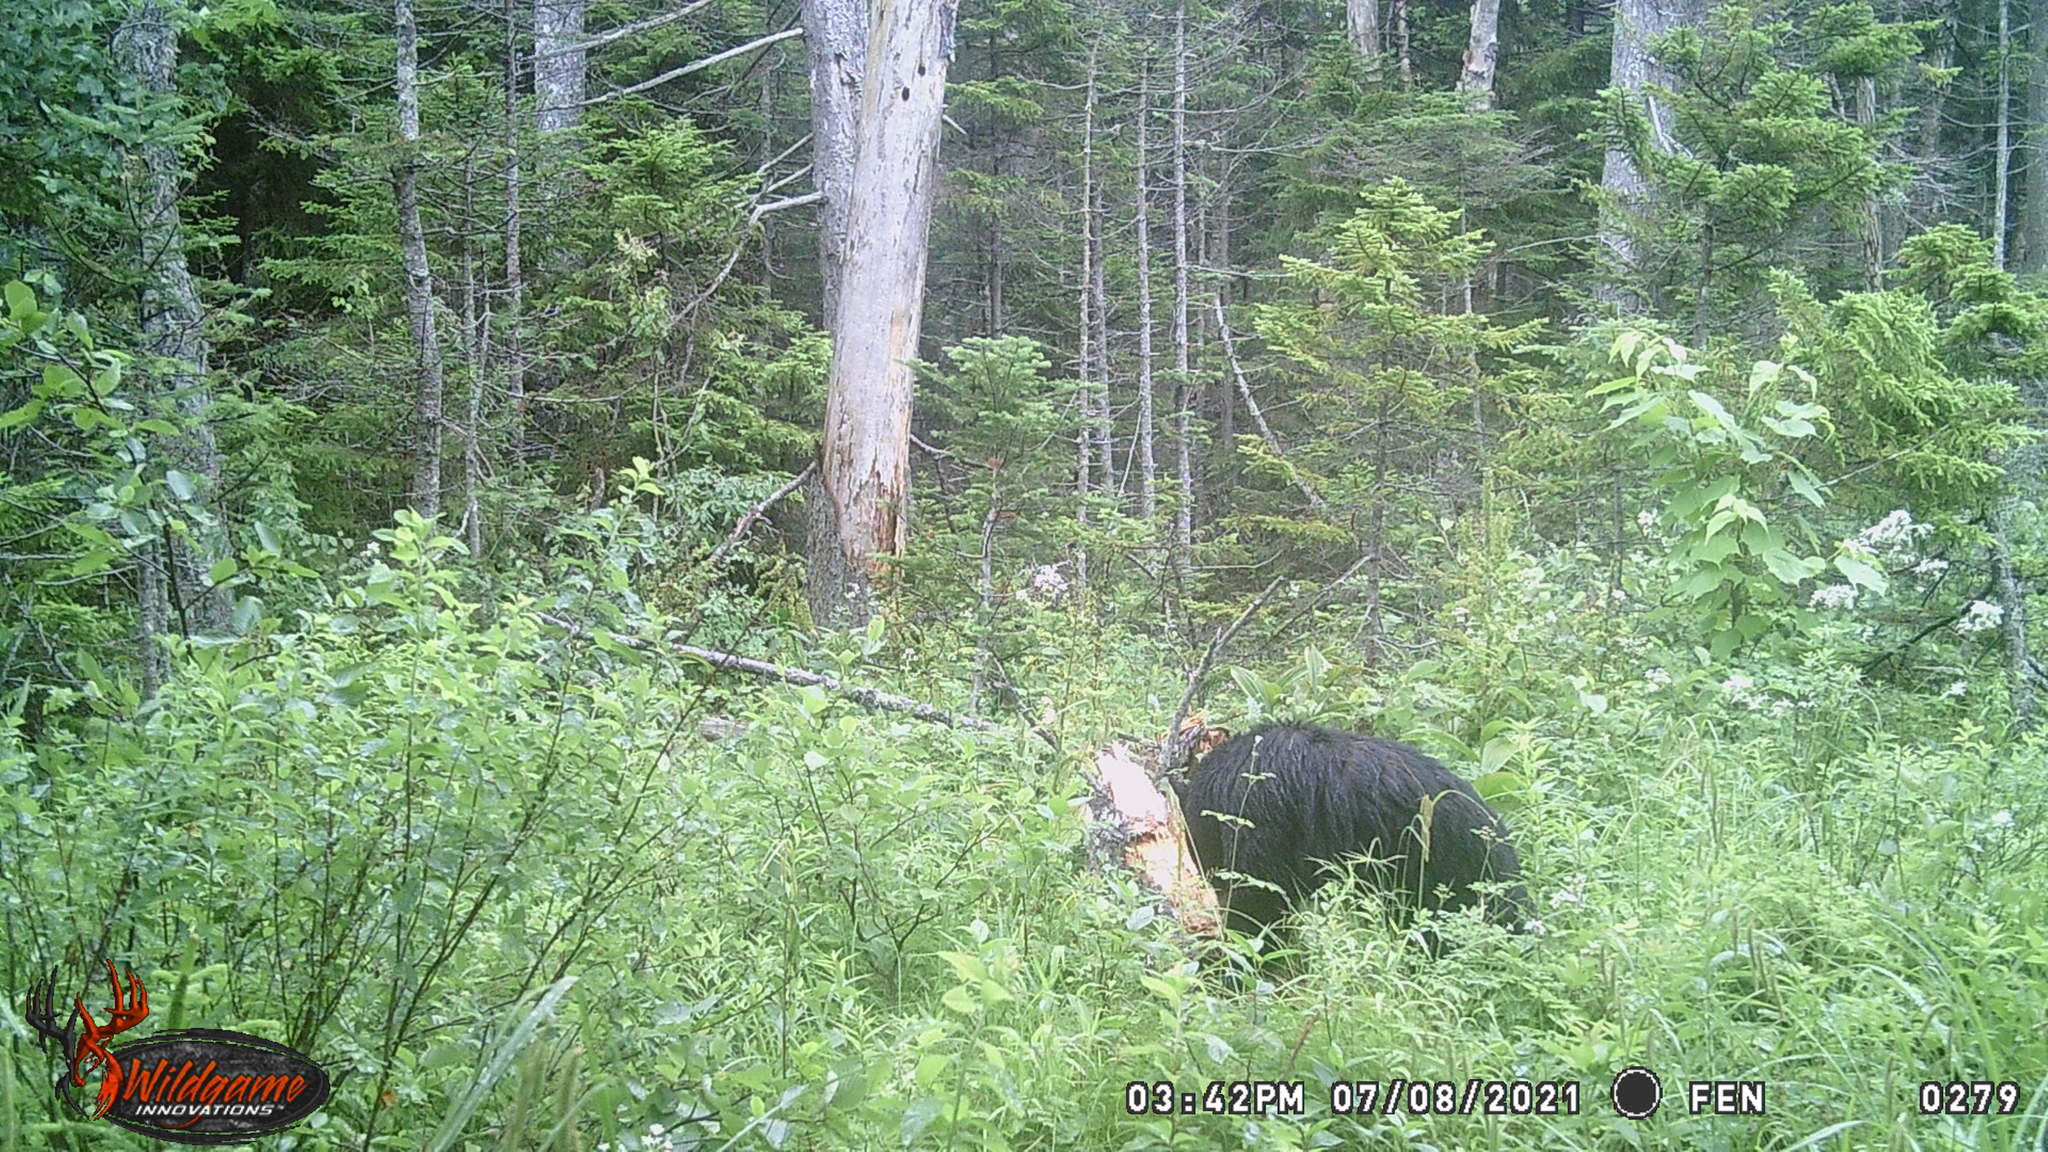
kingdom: Animalia
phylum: Chordata
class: Mammalia
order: Carnivora
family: Ursidae
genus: Ursus
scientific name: Ursus americanus
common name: American black bear
